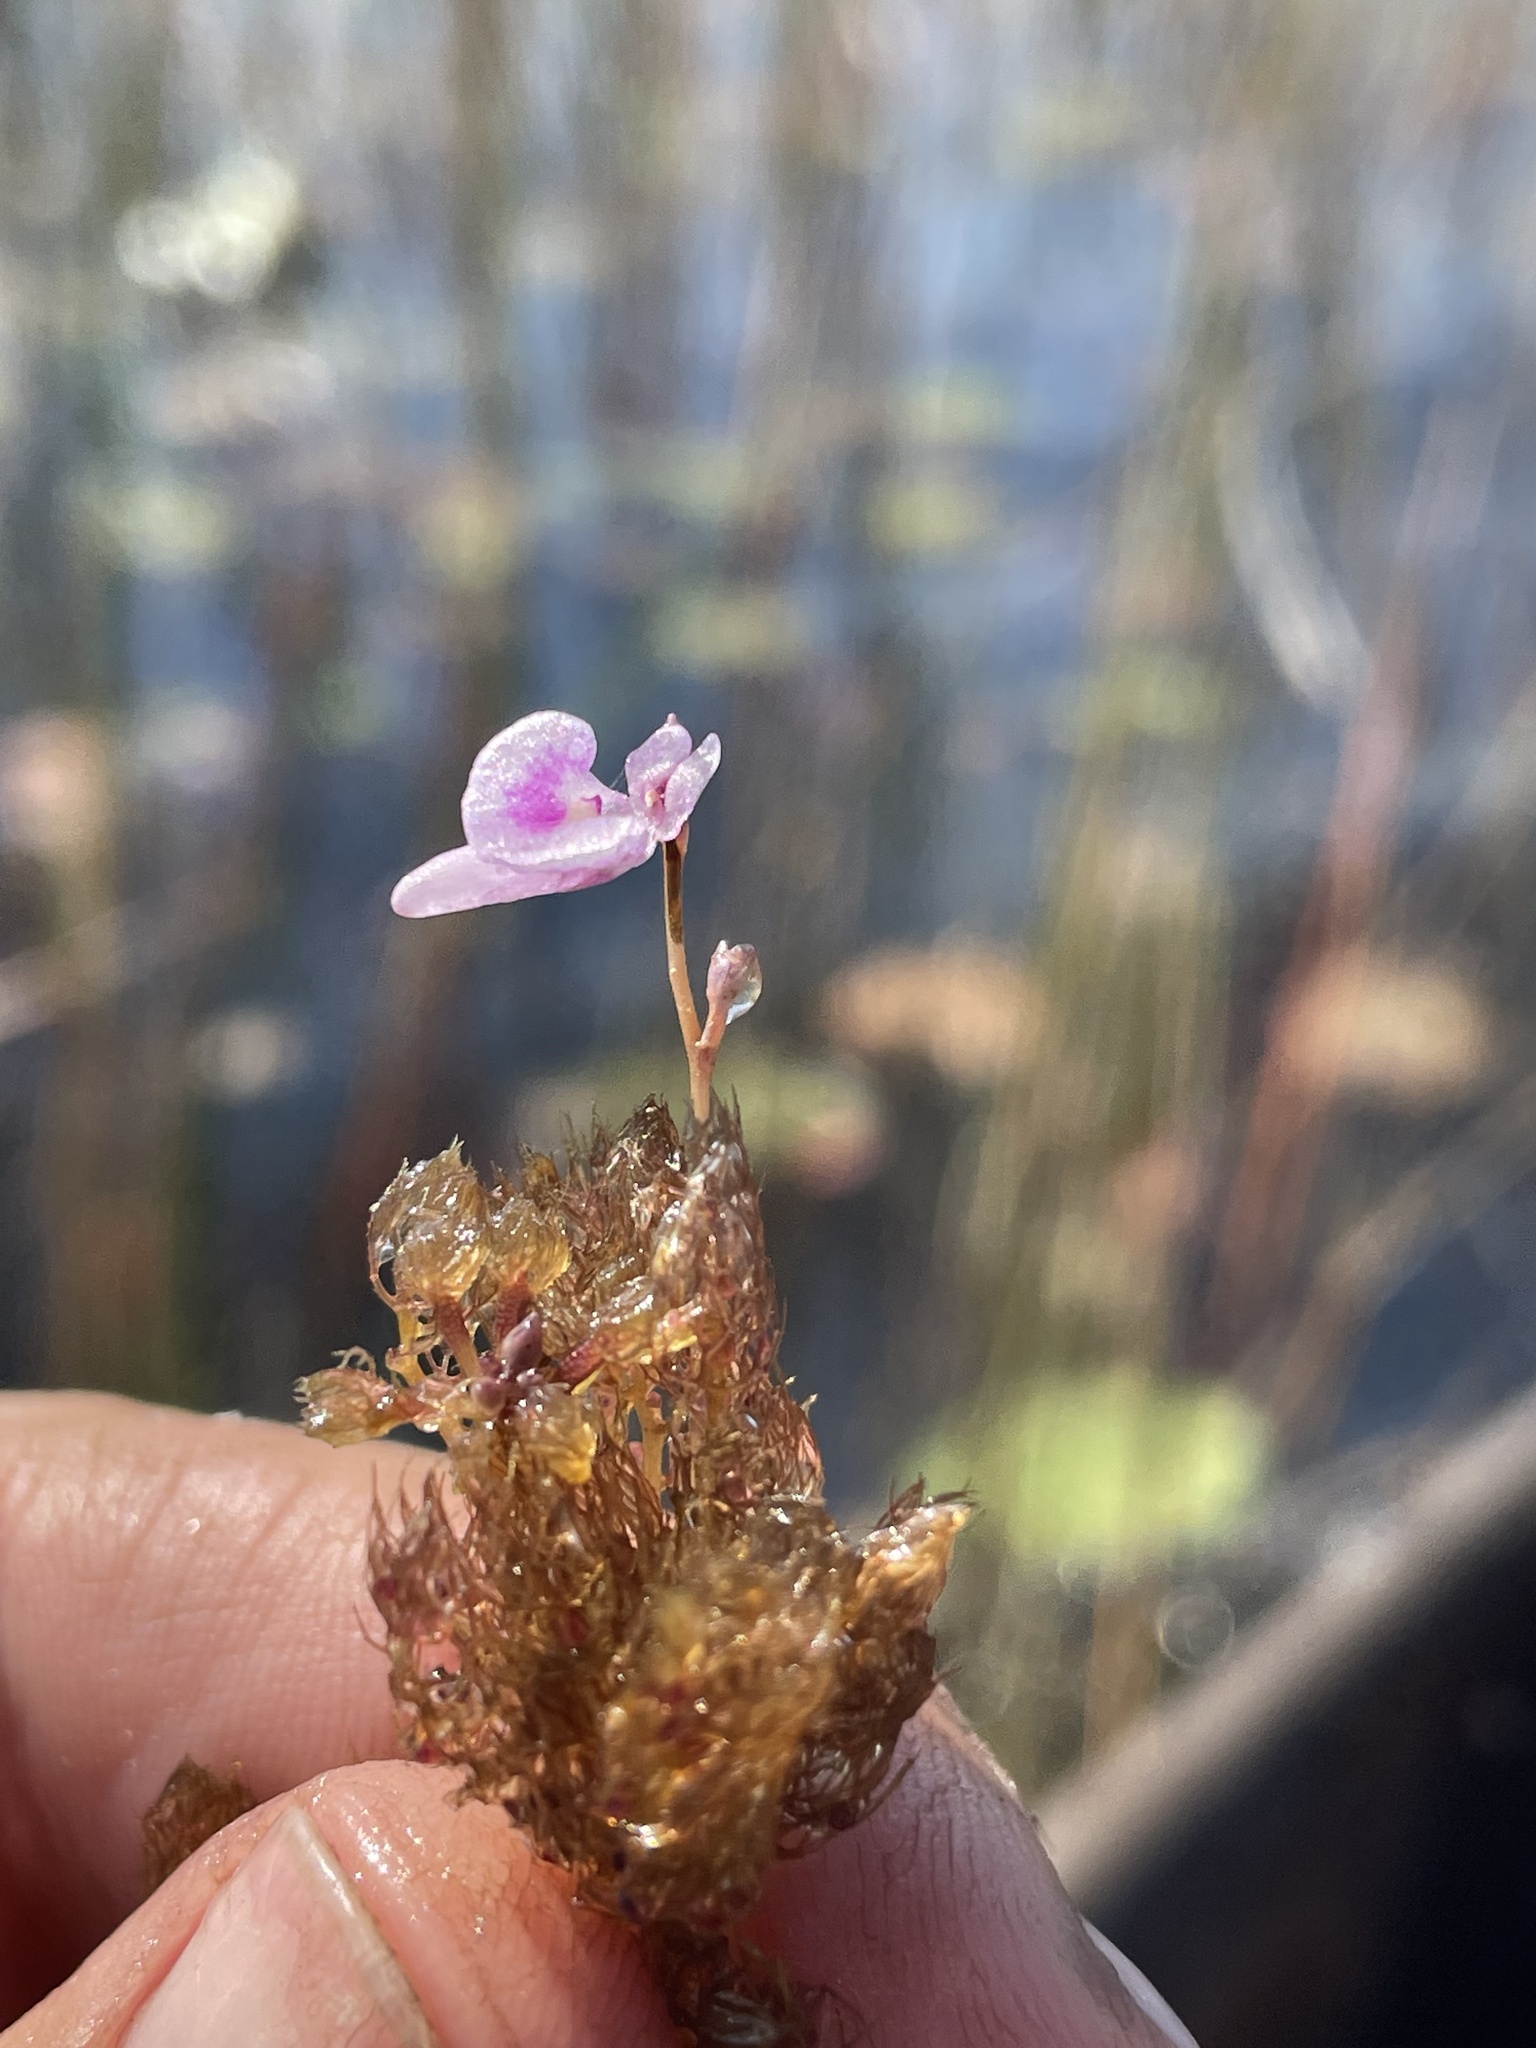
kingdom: Plantae
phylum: Tracheophyta
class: Magnoliopsida
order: Lamiales
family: Lentibulariaceae
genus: Utricularia
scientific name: Utricularia benjaminiana
